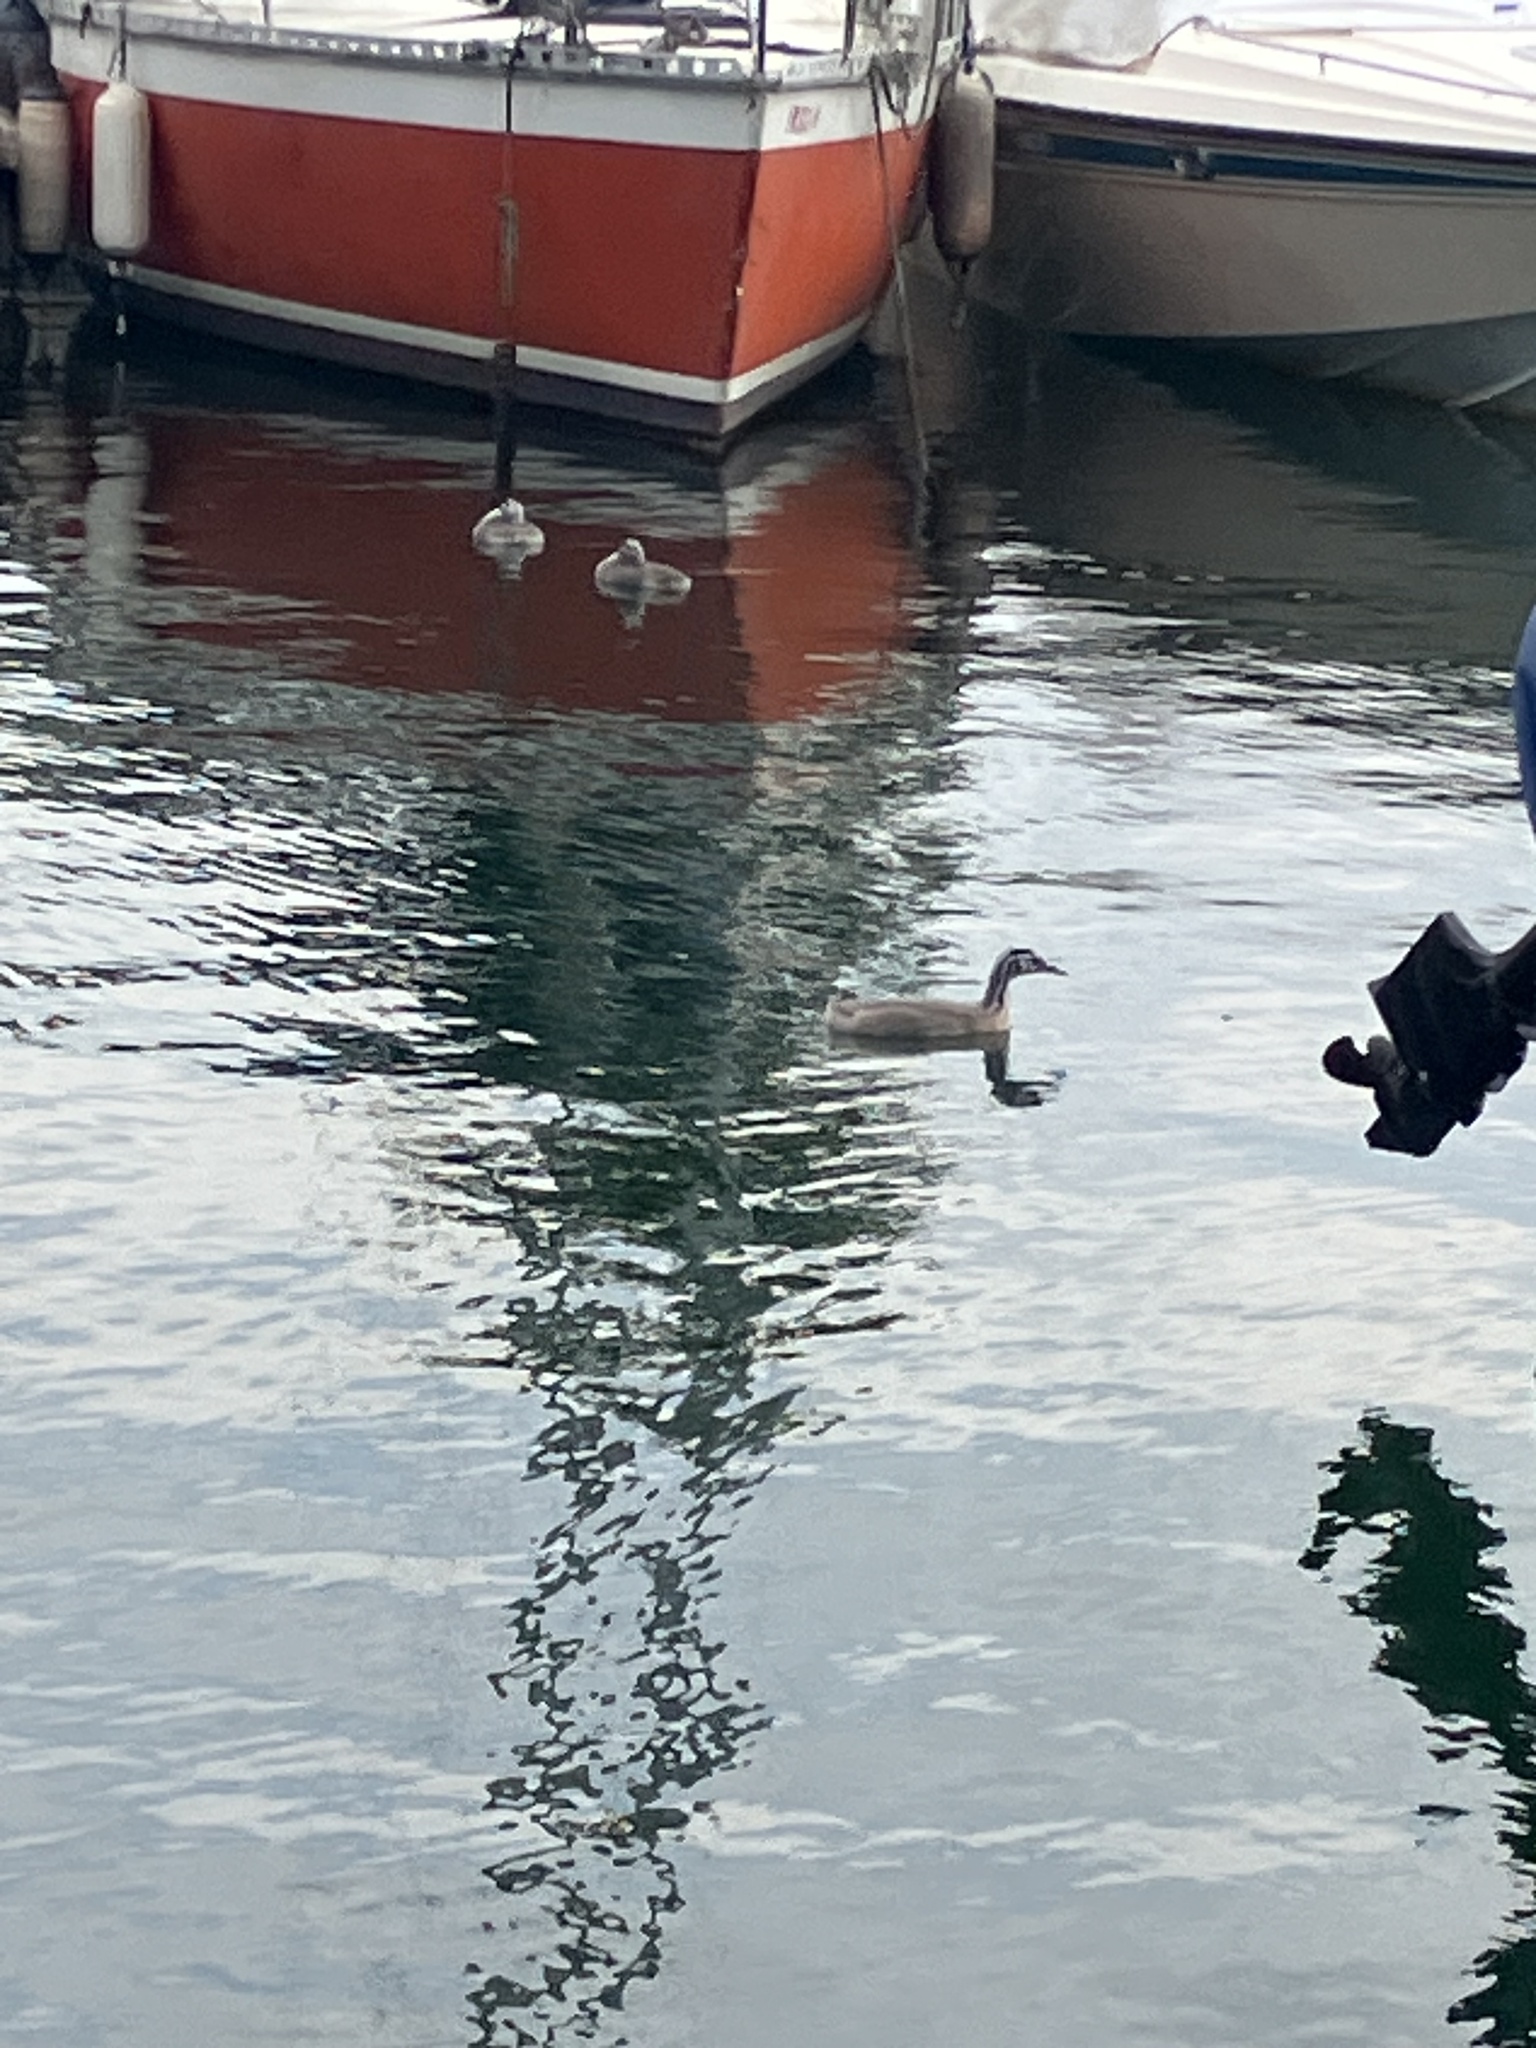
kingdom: Animalia
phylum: Chordata
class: Aves
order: Podicipediformes
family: Podicipedidae
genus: Podiceps
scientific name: Podiceps cristatus
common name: Great crested grebe
